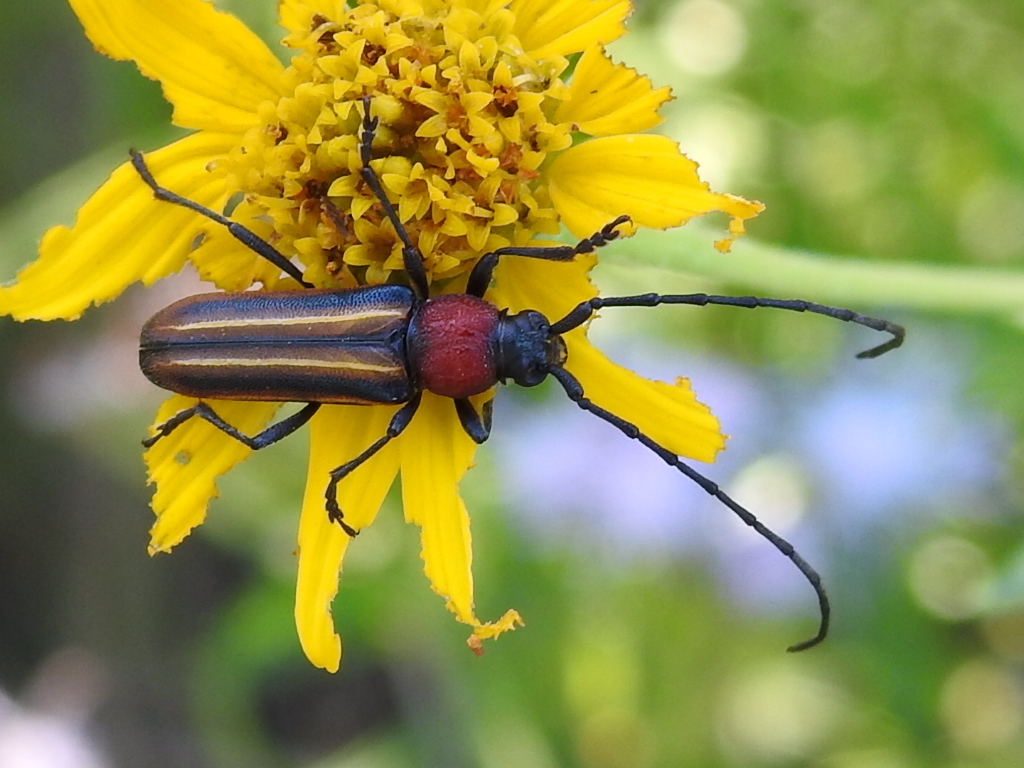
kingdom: Animalia
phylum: Arthropoda
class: Insecta
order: Coleoptera
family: Cerambycidae
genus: Mannophorus
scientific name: Mannophorus laetus
